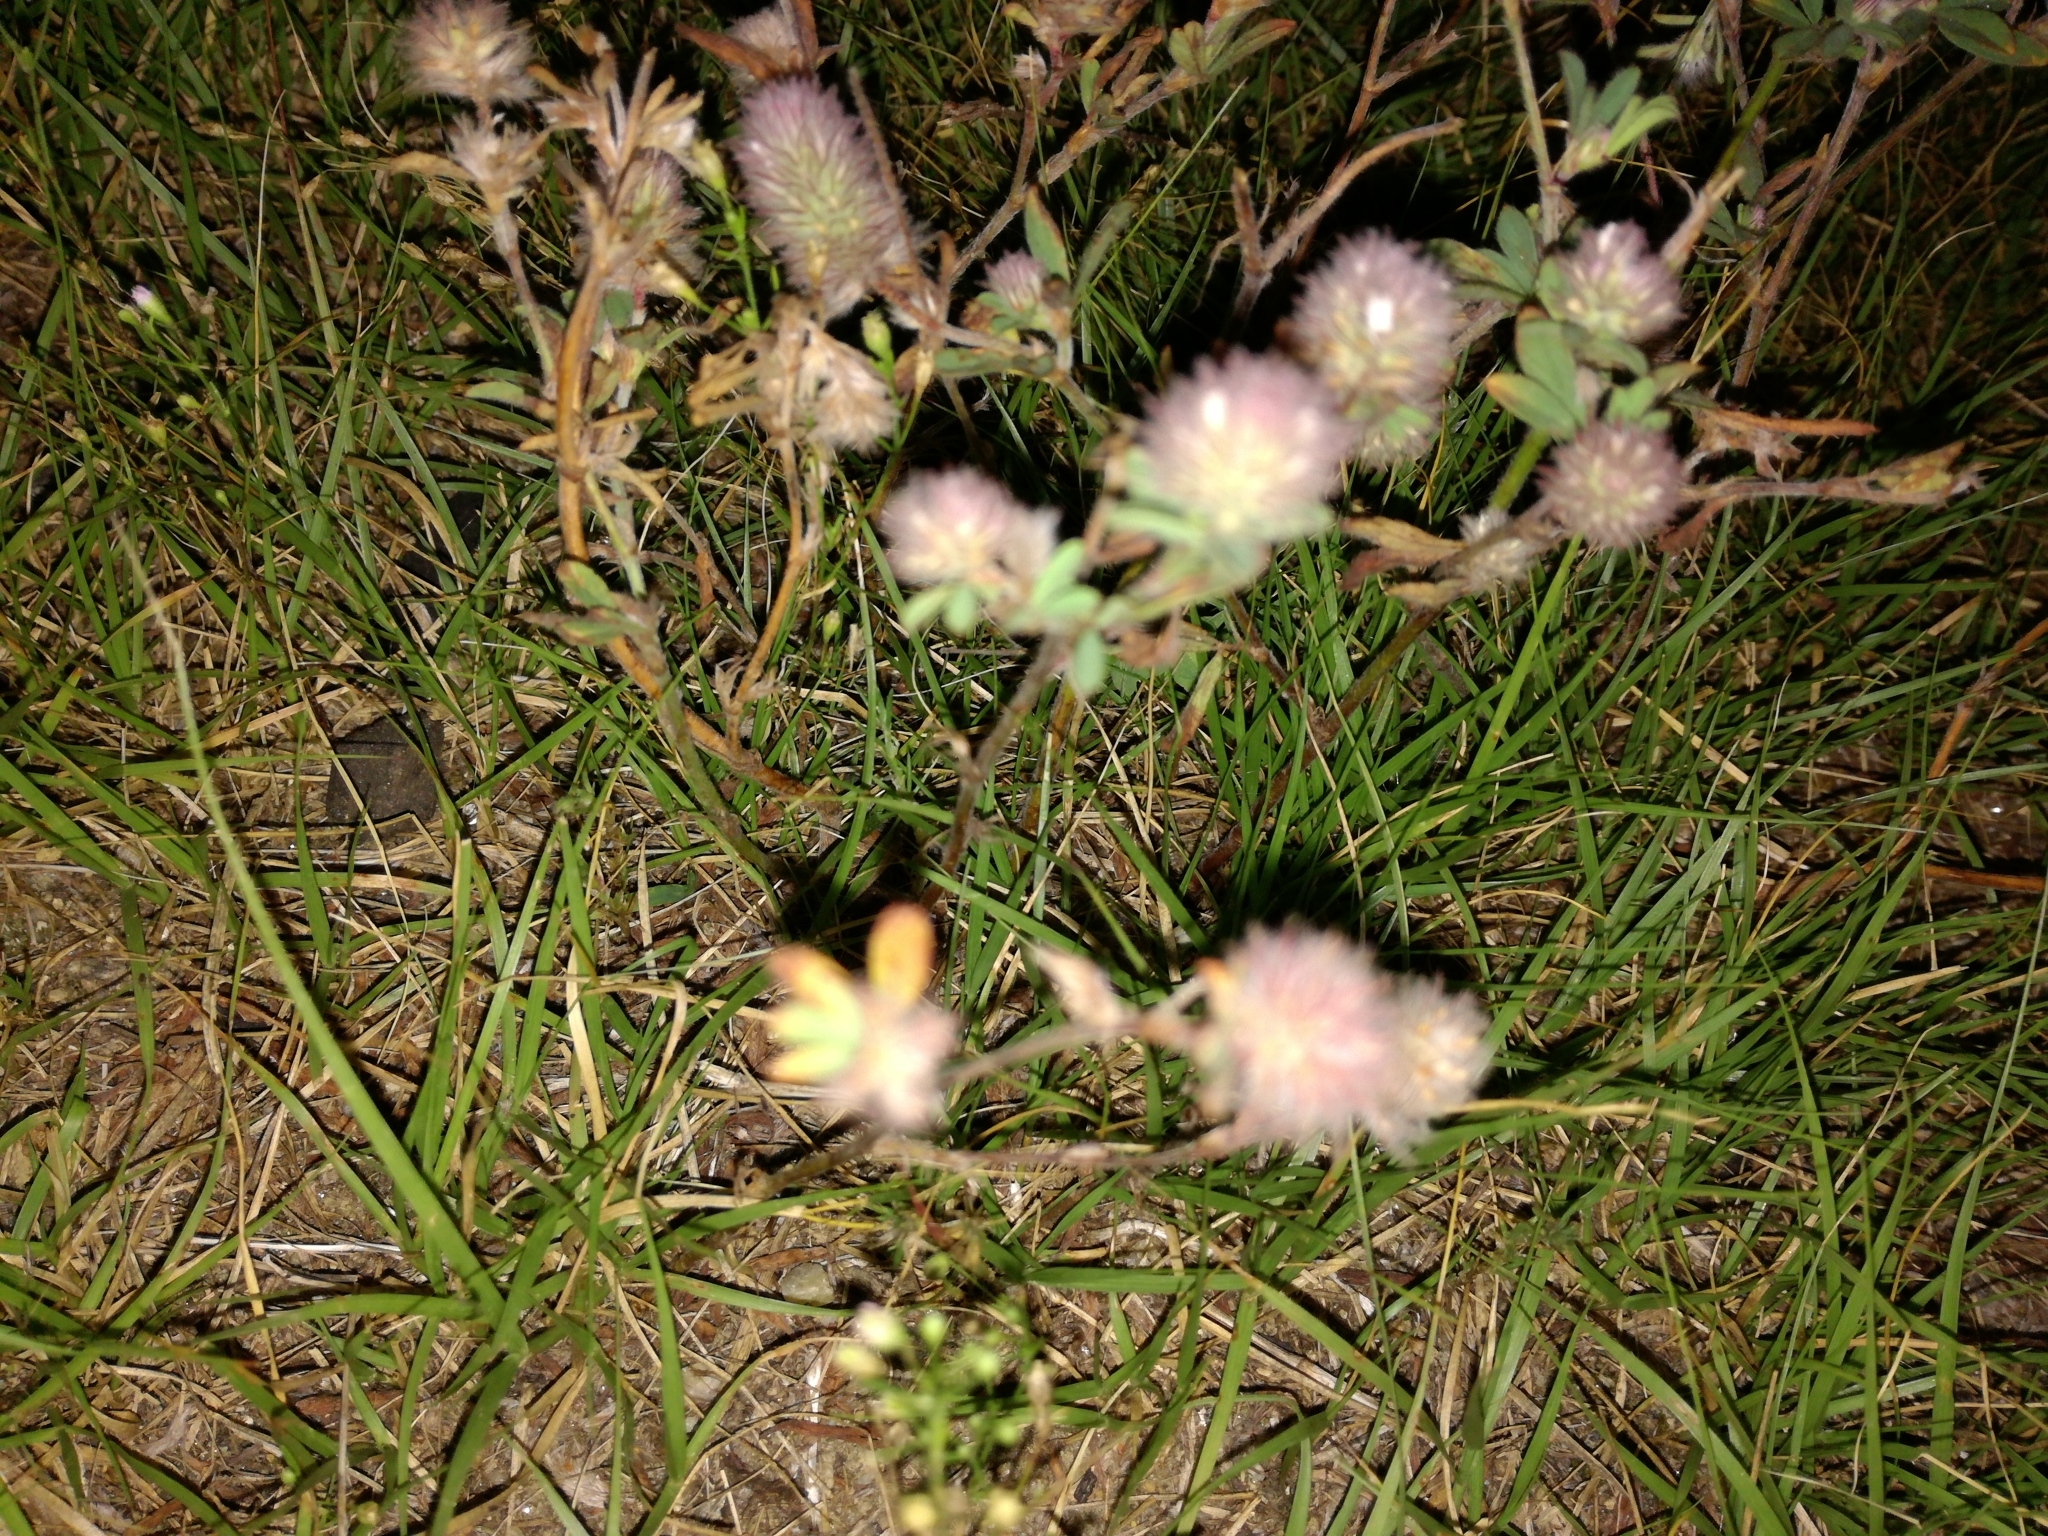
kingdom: Plantae
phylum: Tracheophyta
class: Magnoliopsida
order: Fabales
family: Fabaceae
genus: Trifolium
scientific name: Trifolium arvense
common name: Hare's-foot clover
